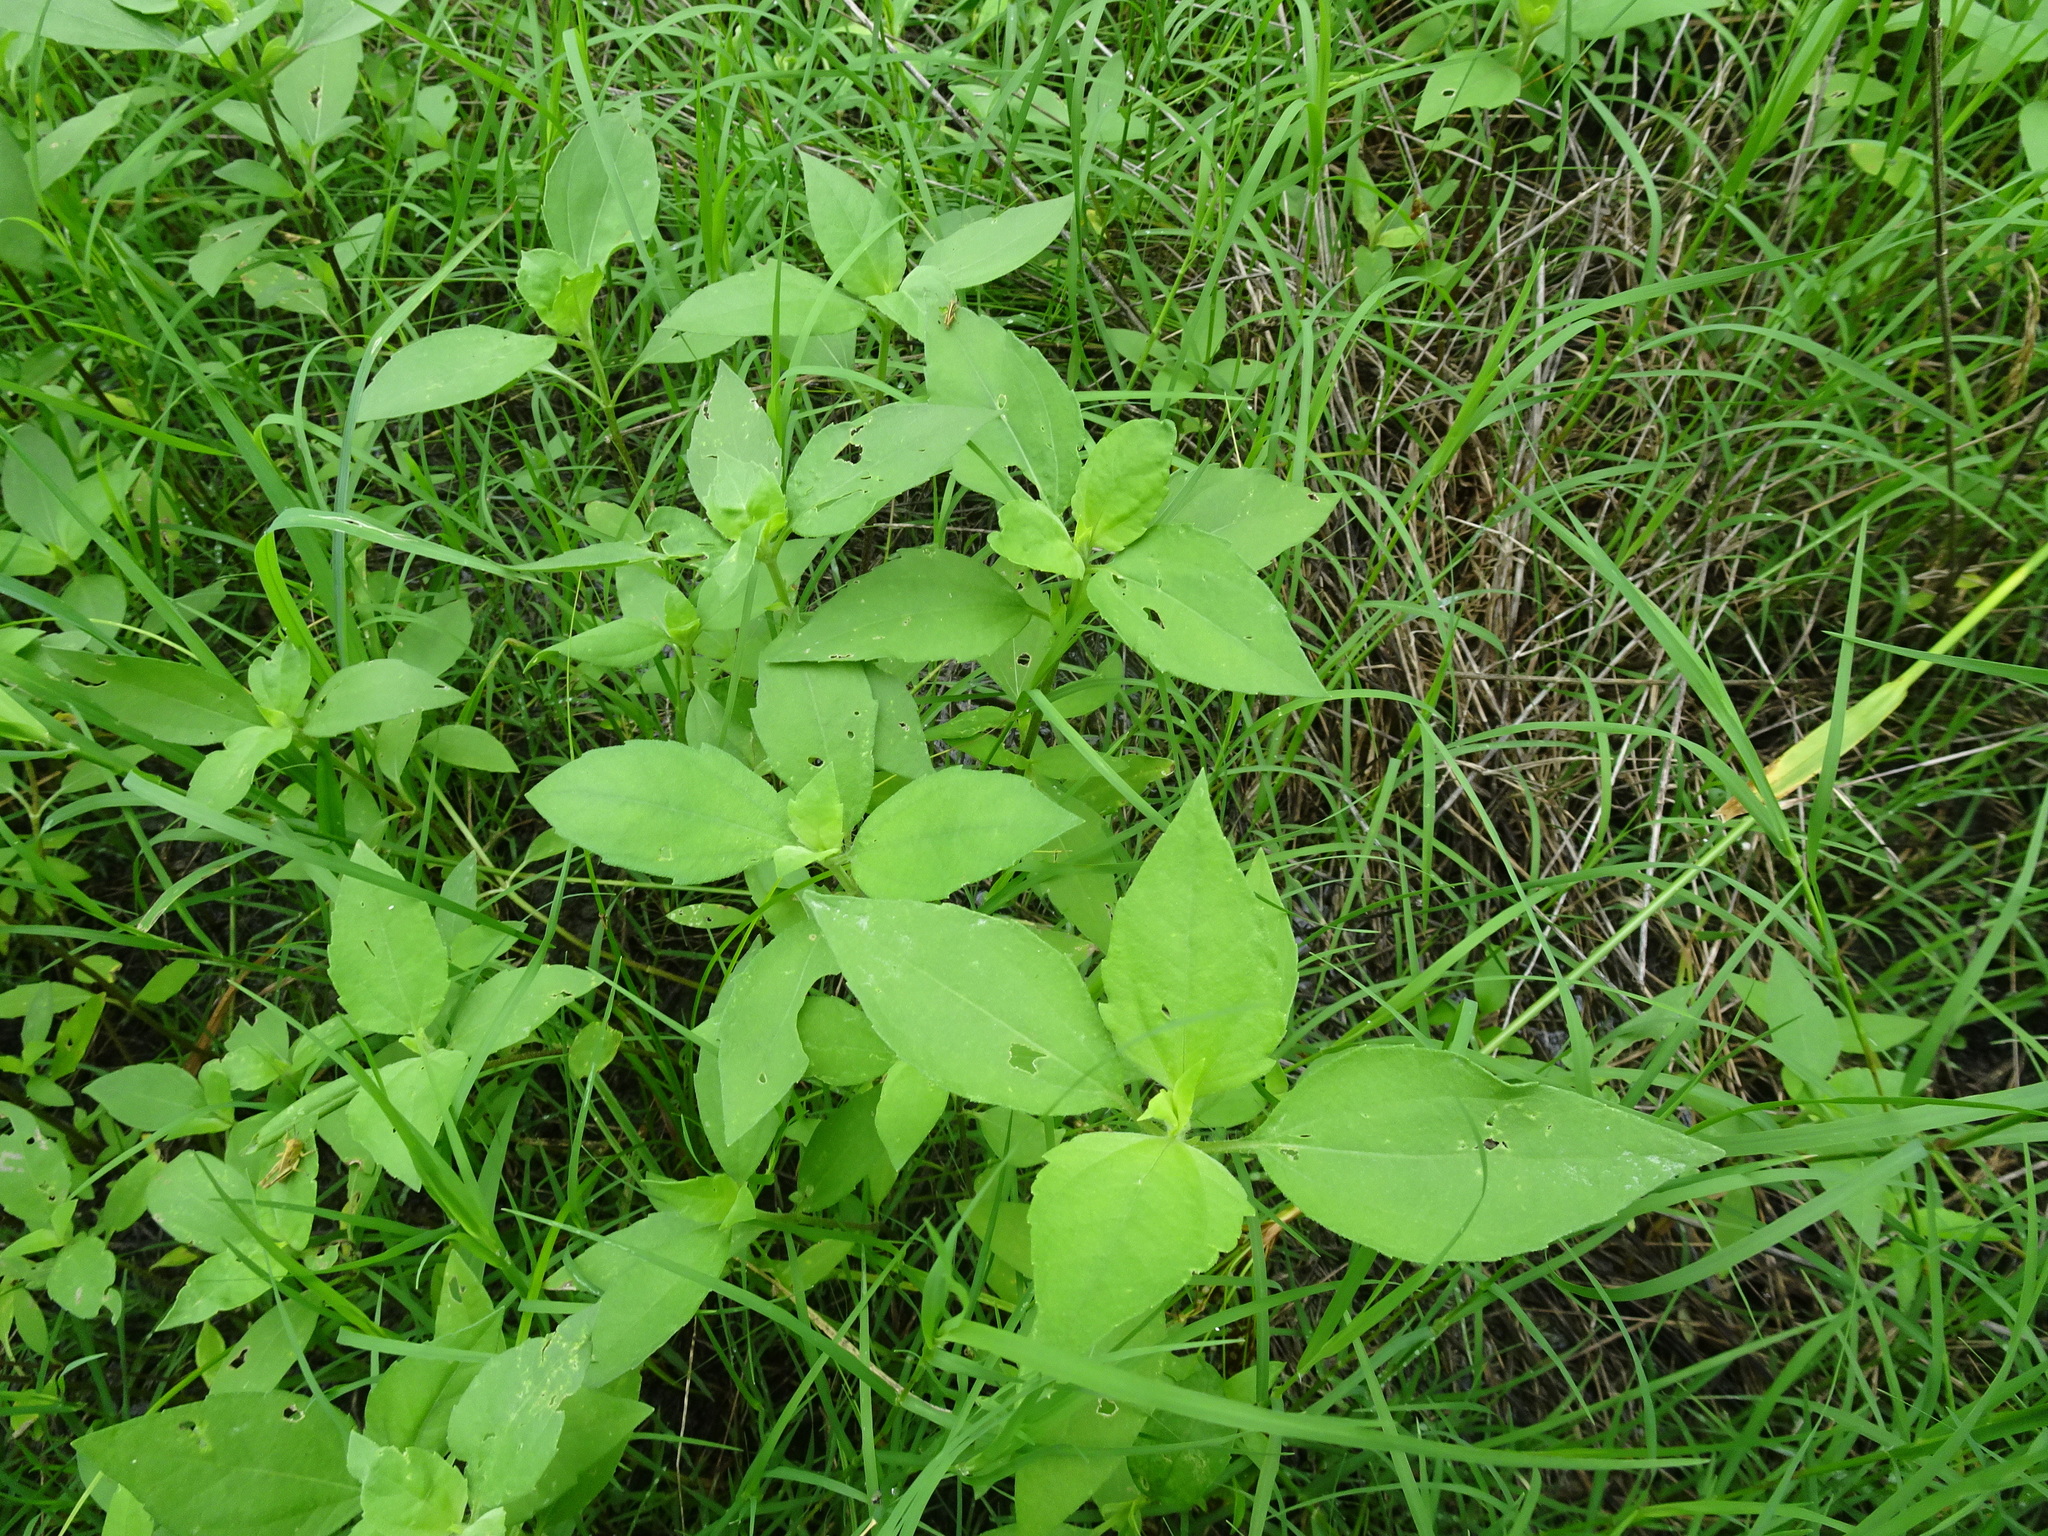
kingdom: Plantae
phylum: Tracheophyta
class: Magnoliopsida
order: Asterales
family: Asteraceae
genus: Iva
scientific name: Iva annua
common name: Marsh-elder
